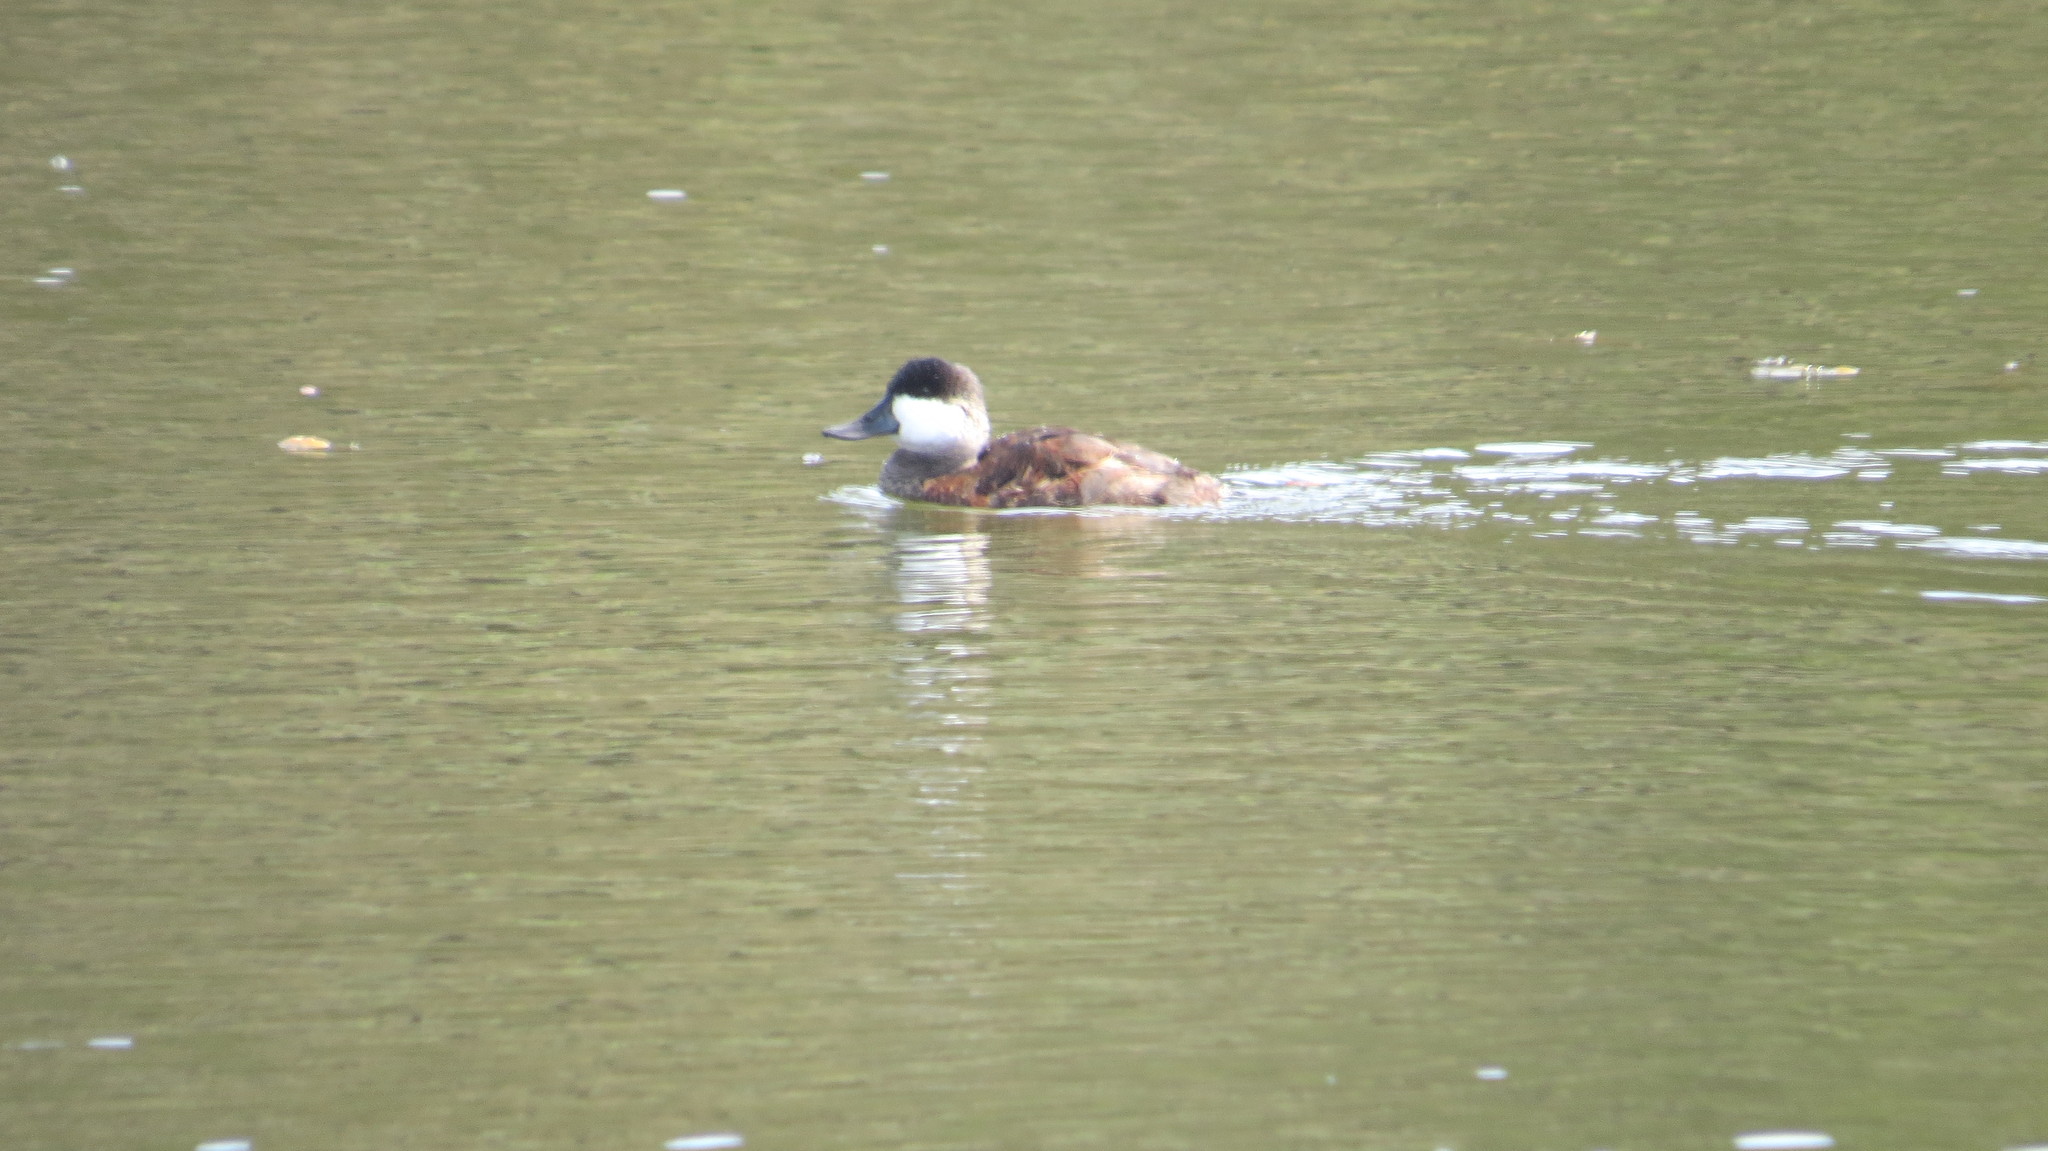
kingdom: Animalia
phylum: Chordata
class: Aves
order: Anseriformes
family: Anatidae
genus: Oxyura
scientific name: Oxyura jamaicensis
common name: Ruddy duck
